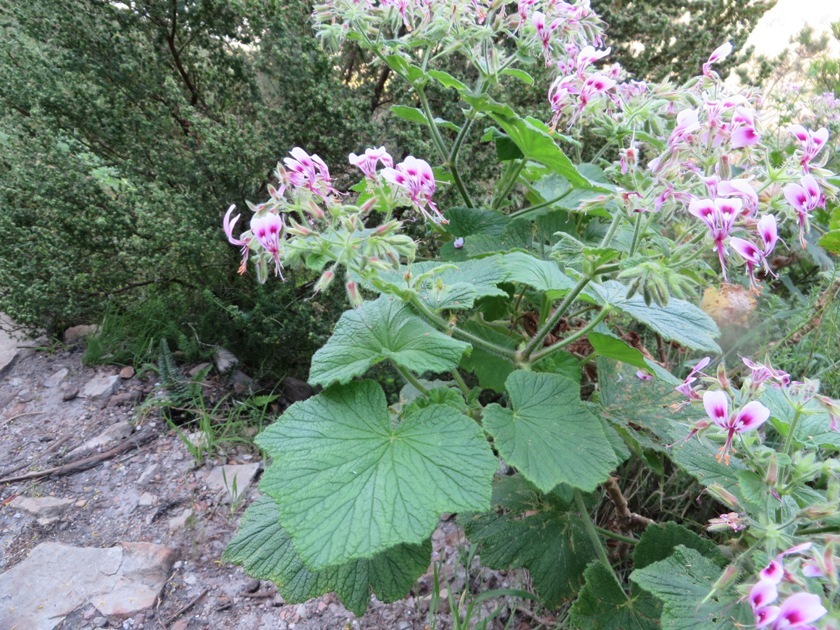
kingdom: Plantae
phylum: Tracheophyta
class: Magnoliopsida
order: Geraniales
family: Geraniaceae
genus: Pelargonium
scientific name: Pelargonium papilionaceum
